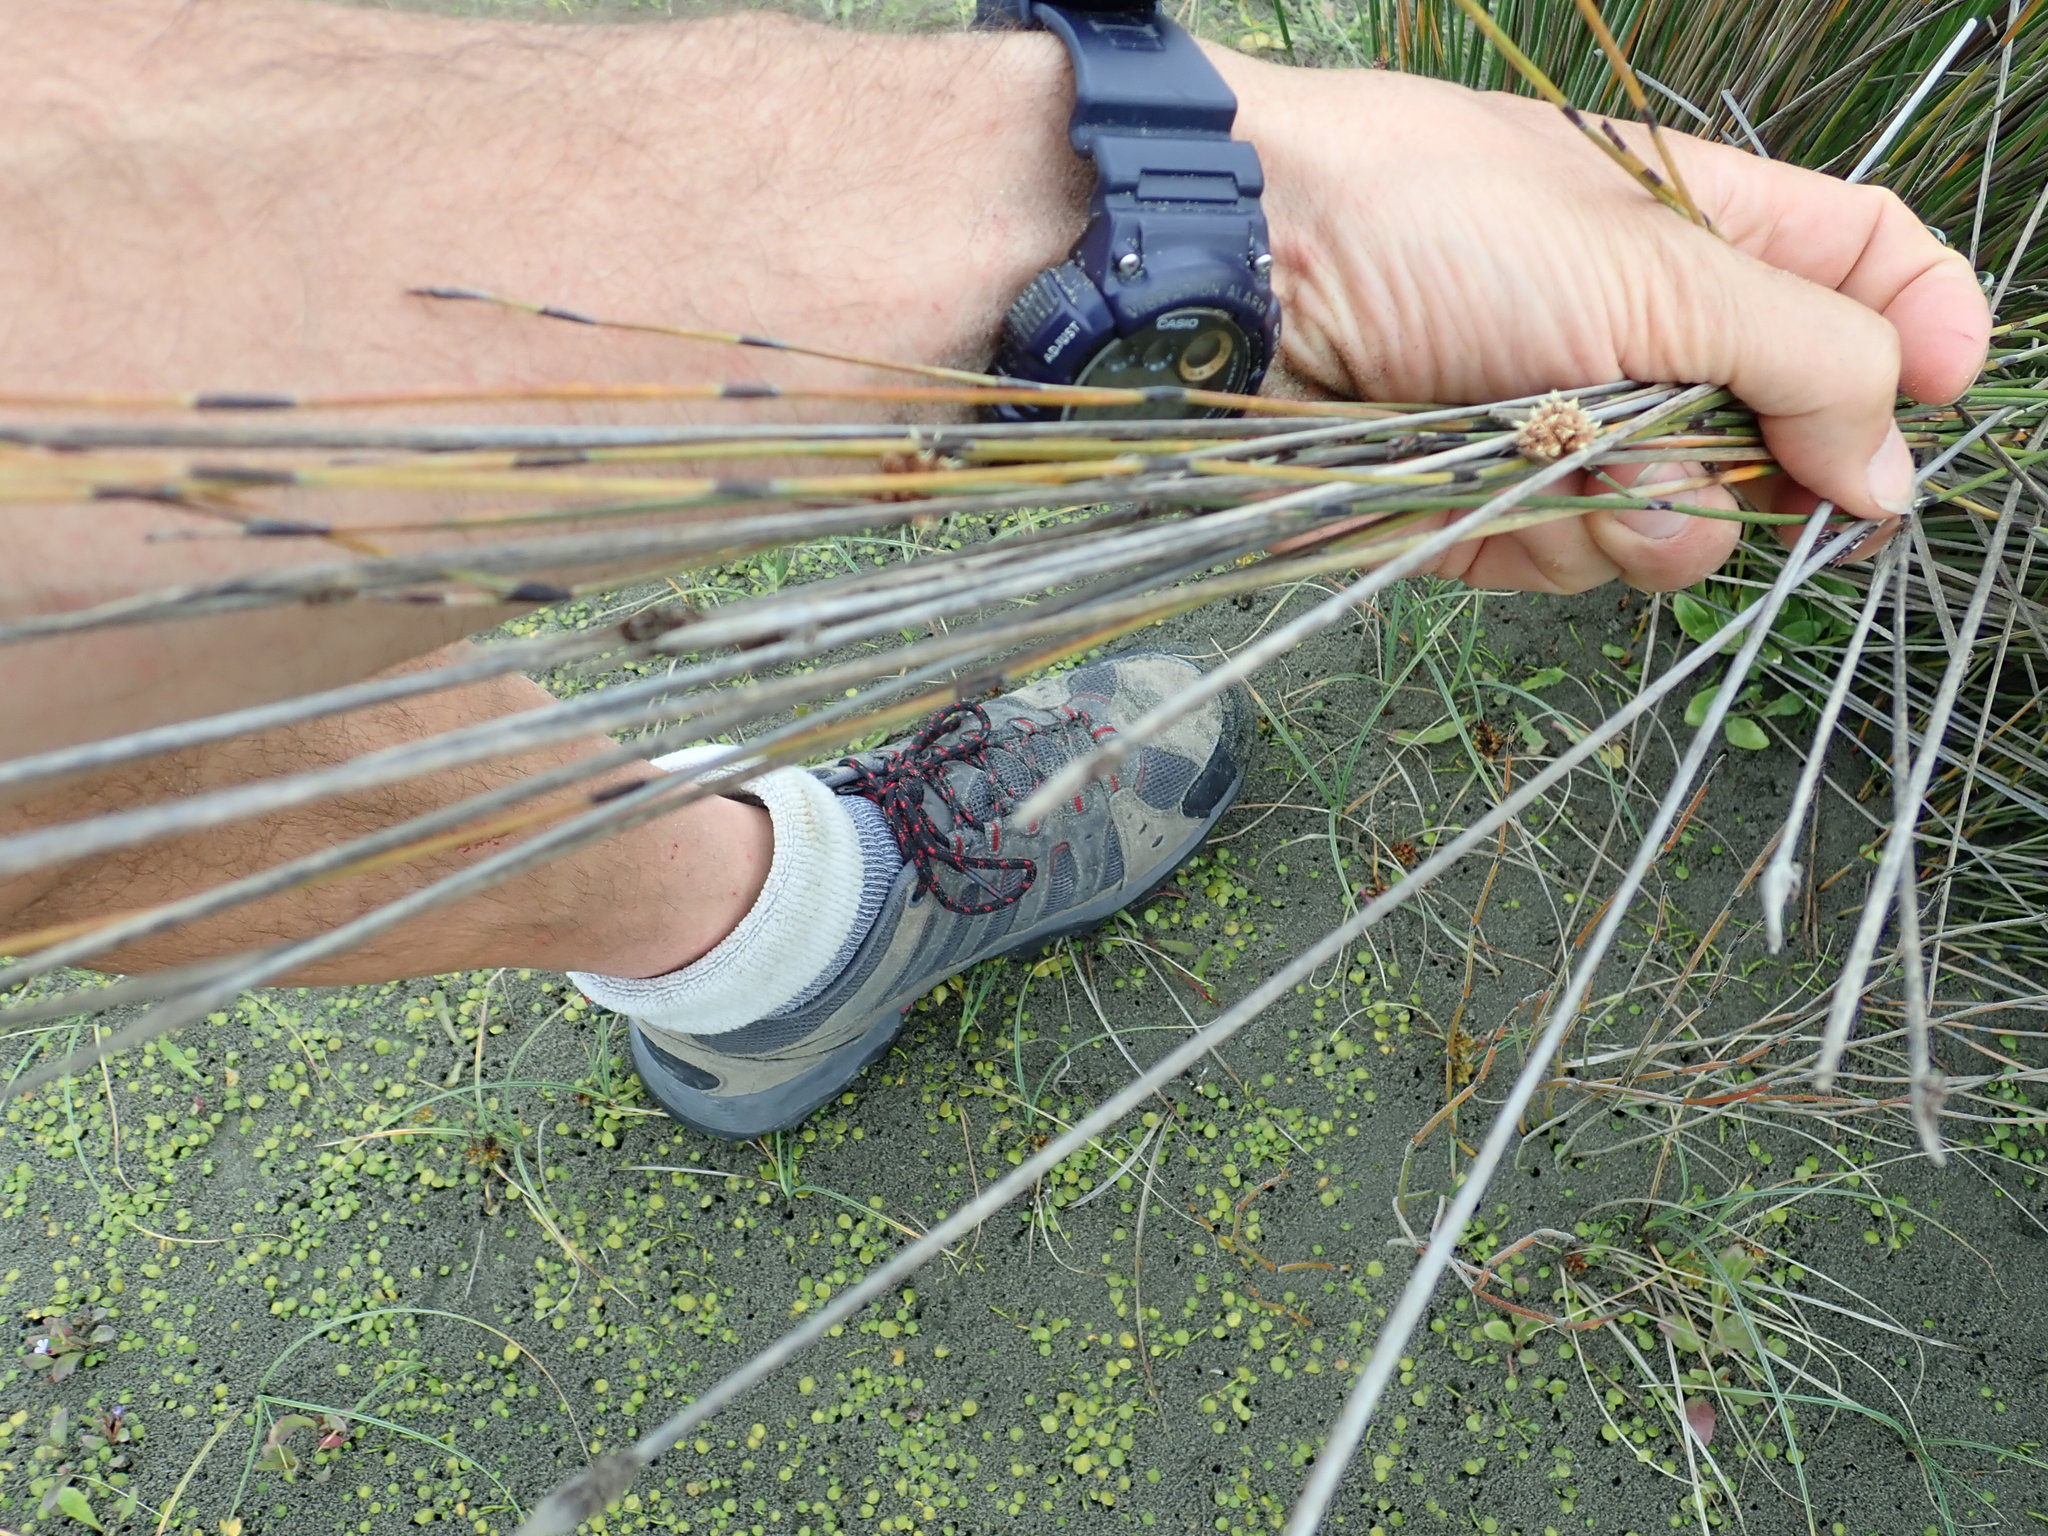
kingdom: Plantae
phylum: Tracheophyta
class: Liliopsida
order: Poales
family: Restionaceae
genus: Apodasmia
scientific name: Apodasmia similis
